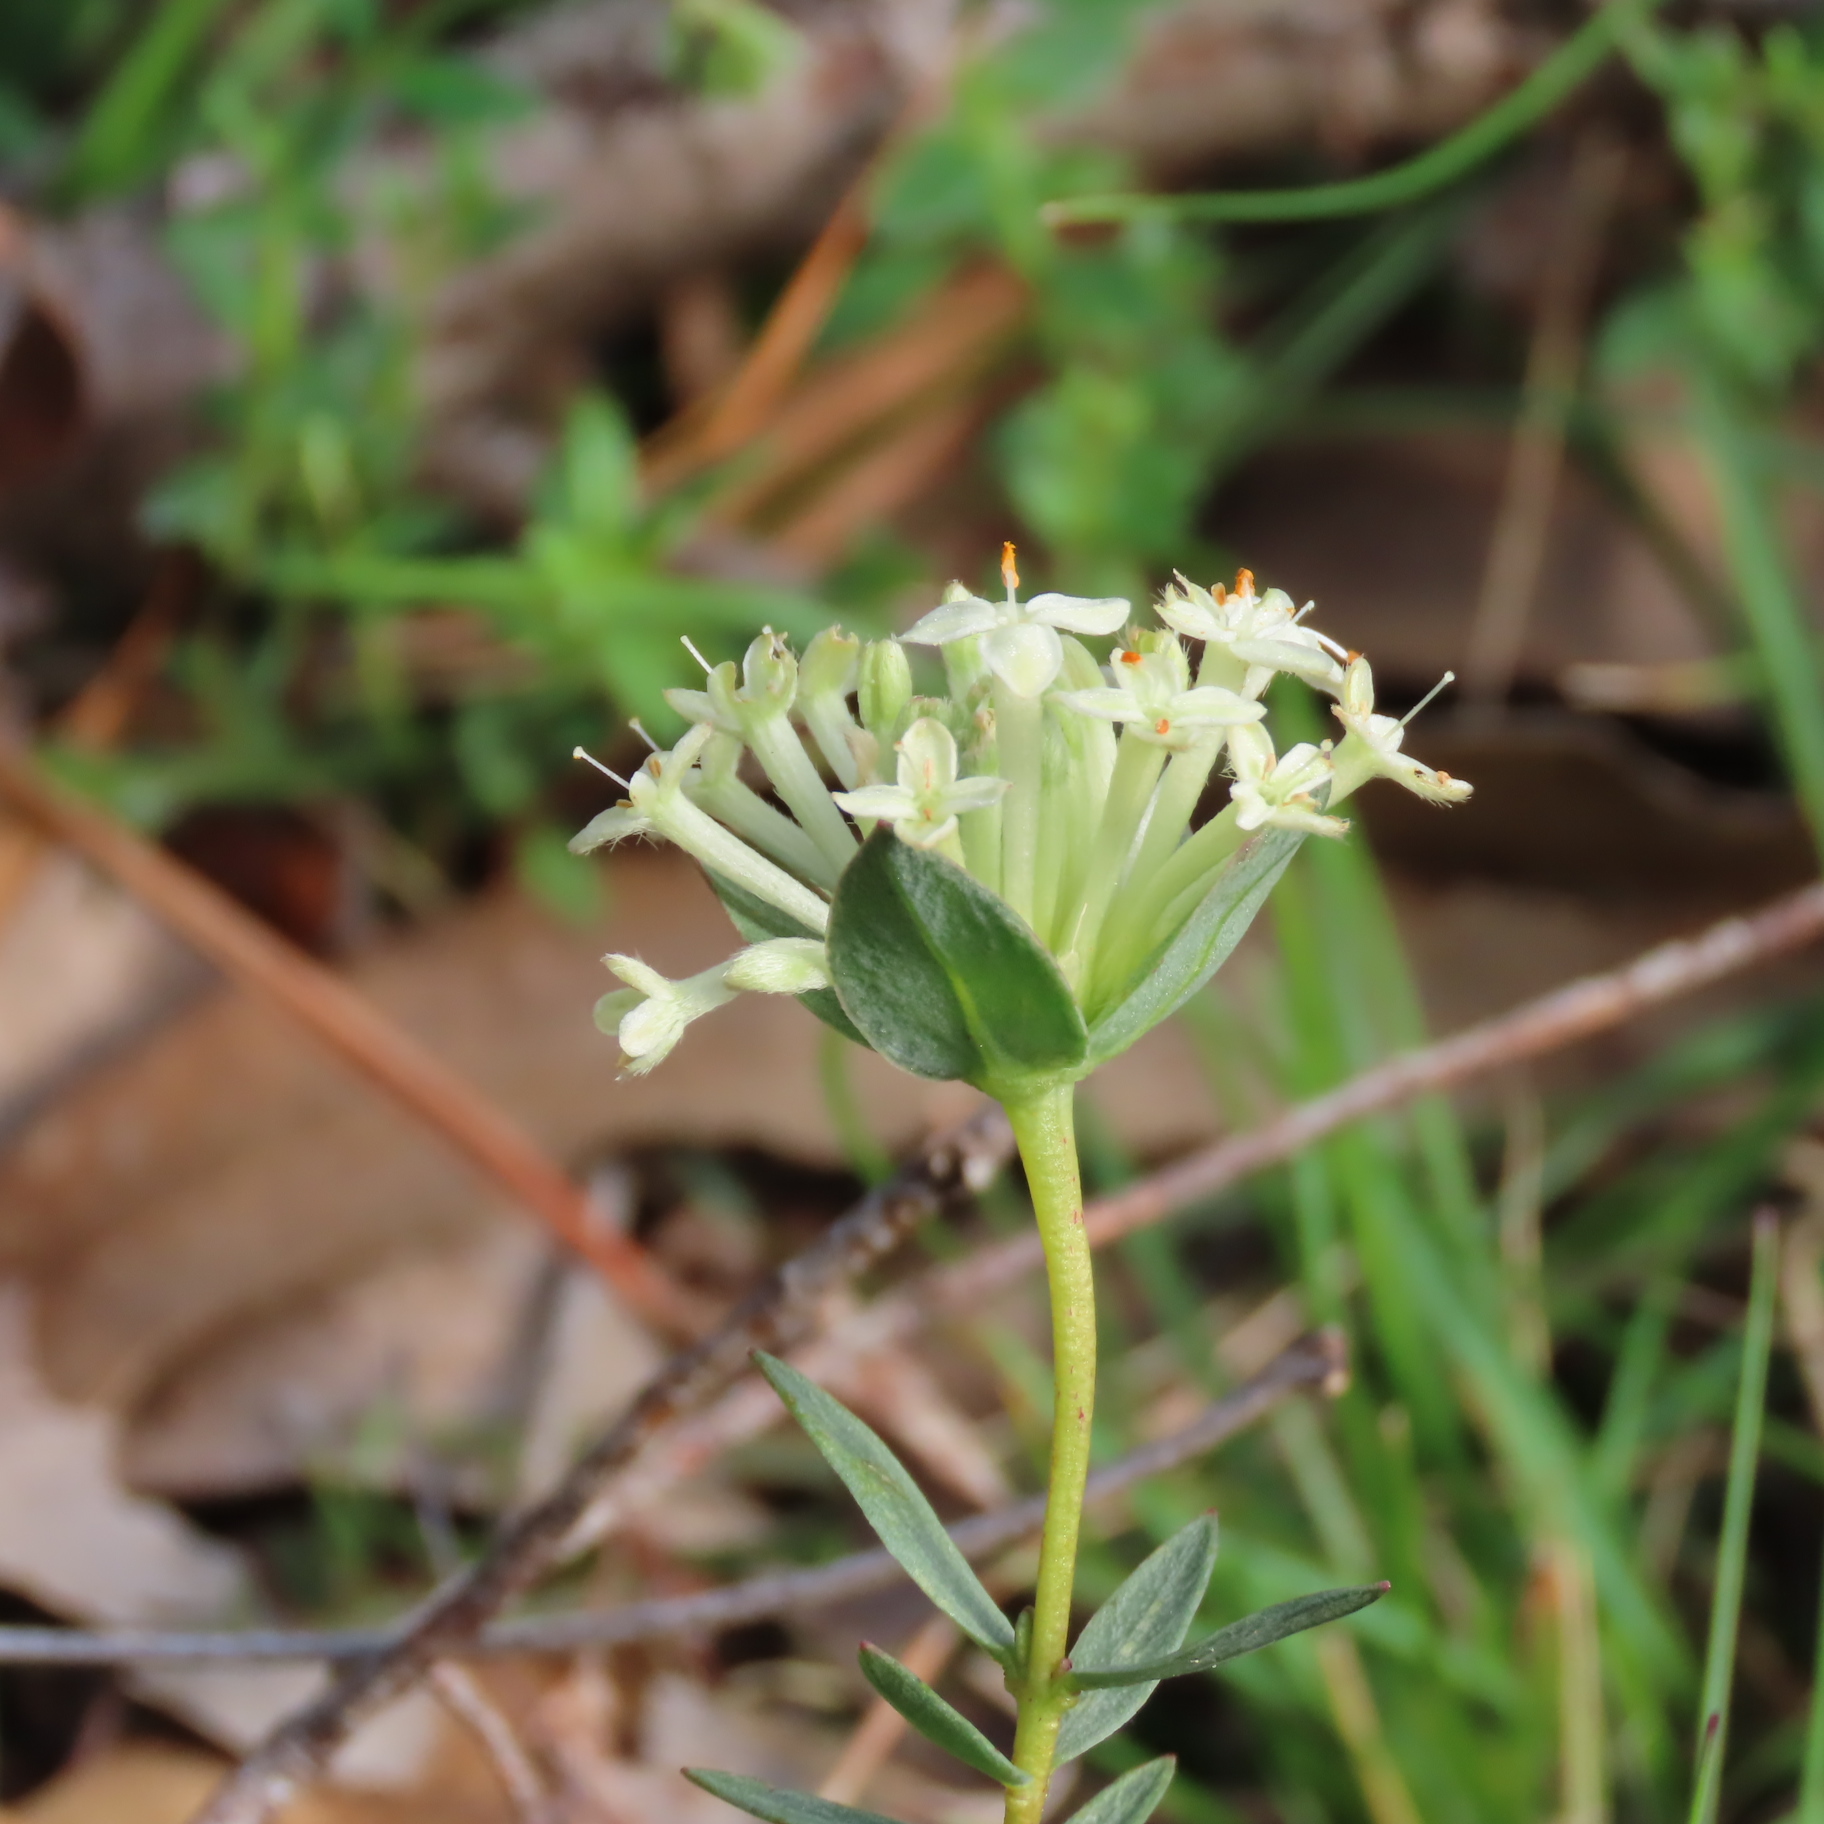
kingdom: Plantae
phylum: Tracheophyta
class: Magnoliopsida
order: Malvales
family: Thymelaeaceae
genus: Pimelea
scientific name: Pimelea humilis
